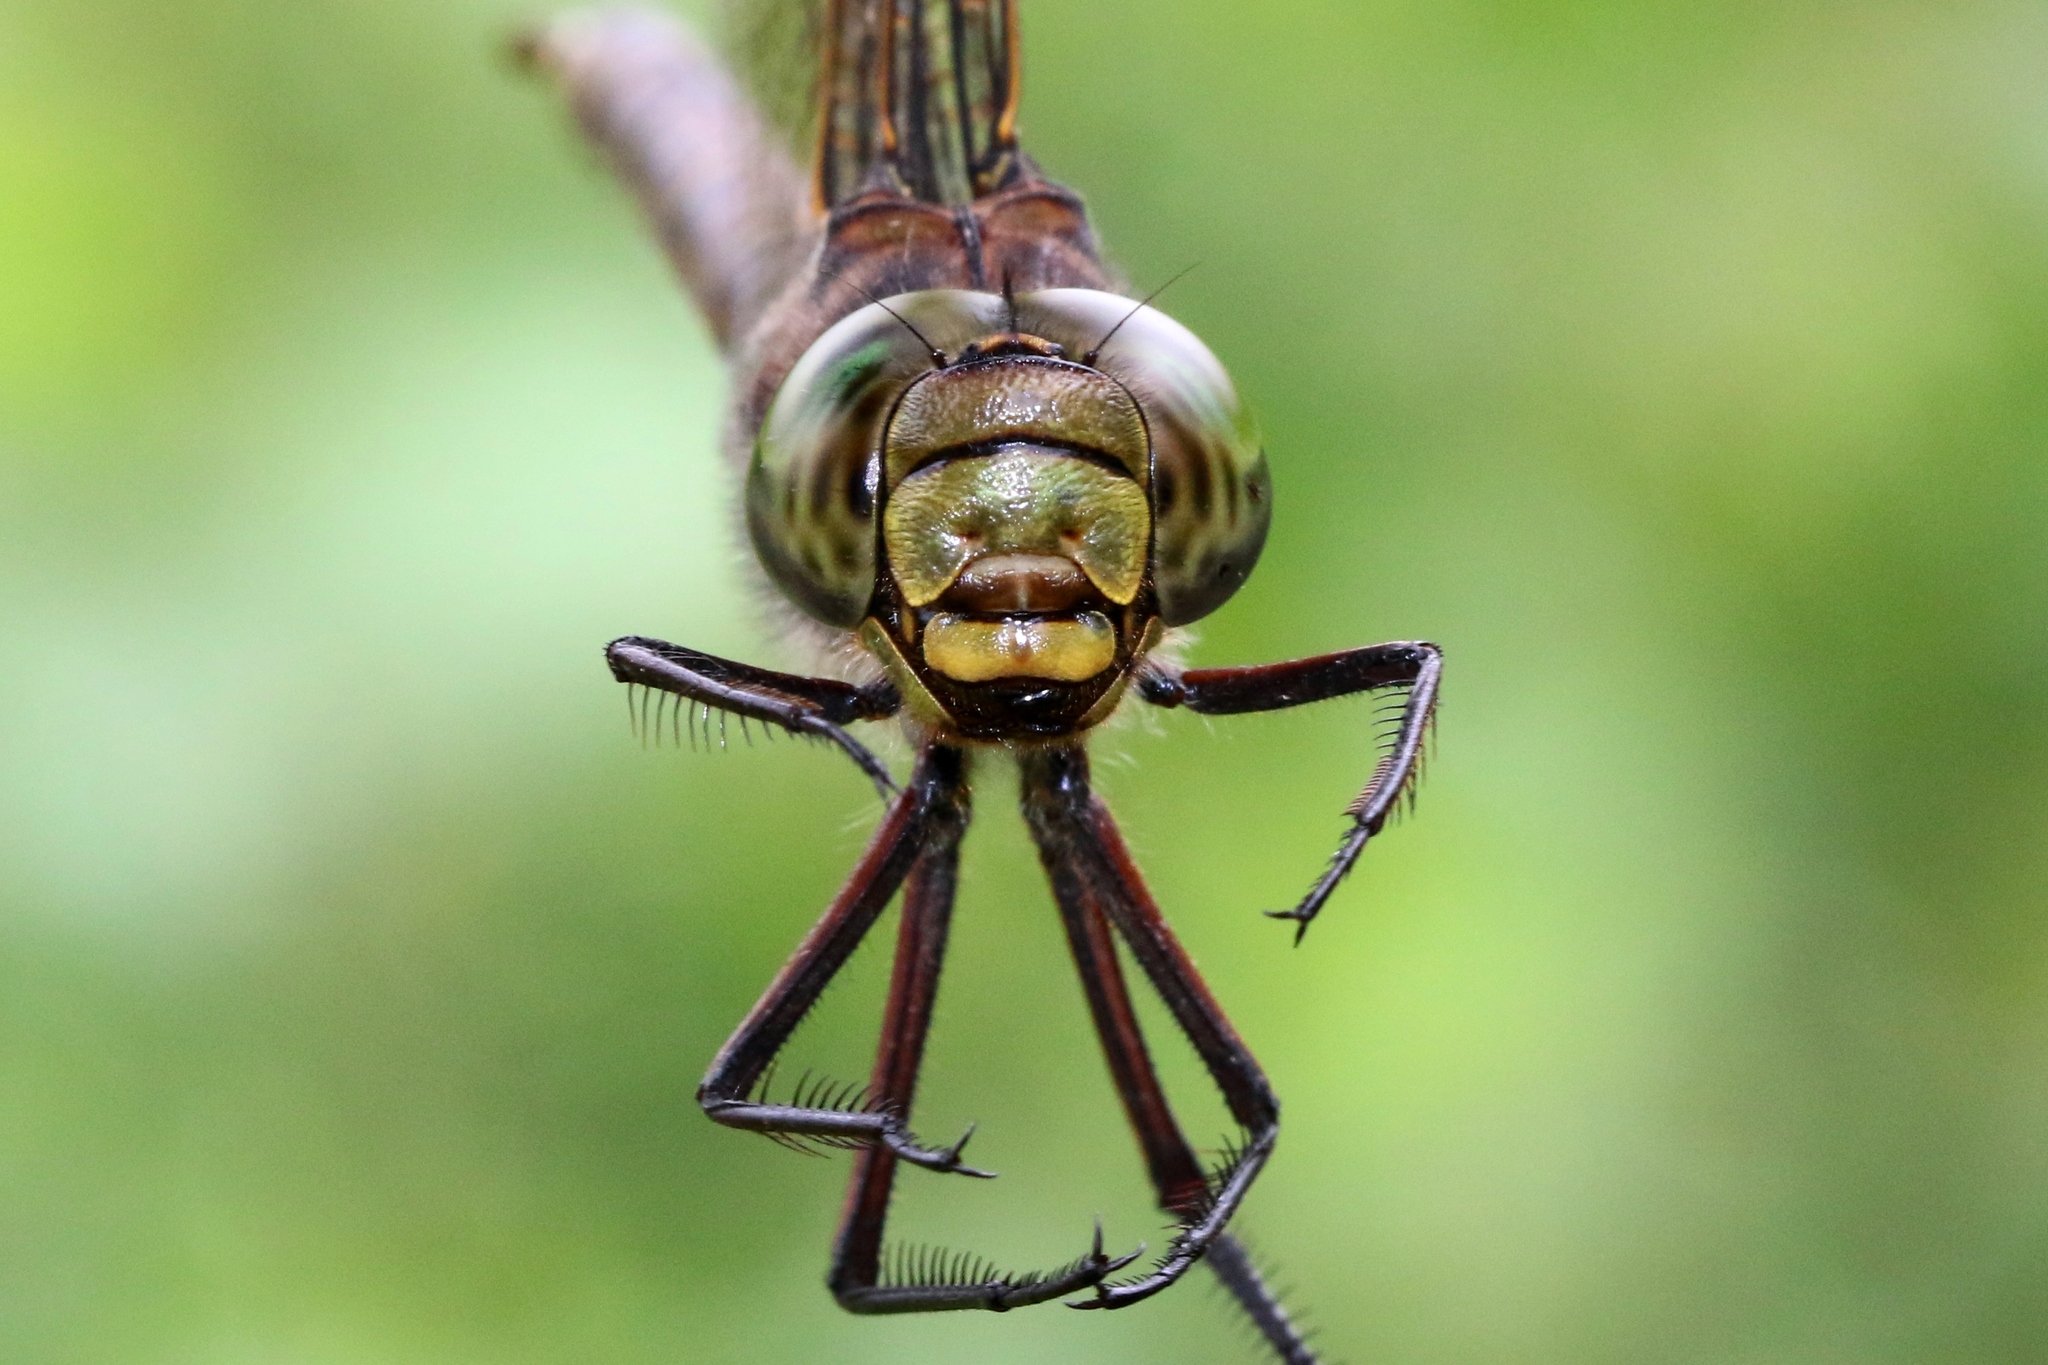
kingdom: Animalia
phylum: Arthropoda
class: Insecta
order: Odonata
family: Aeshnidae
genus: Aeshna
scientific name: Aeshna eremita
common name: Lake darner
